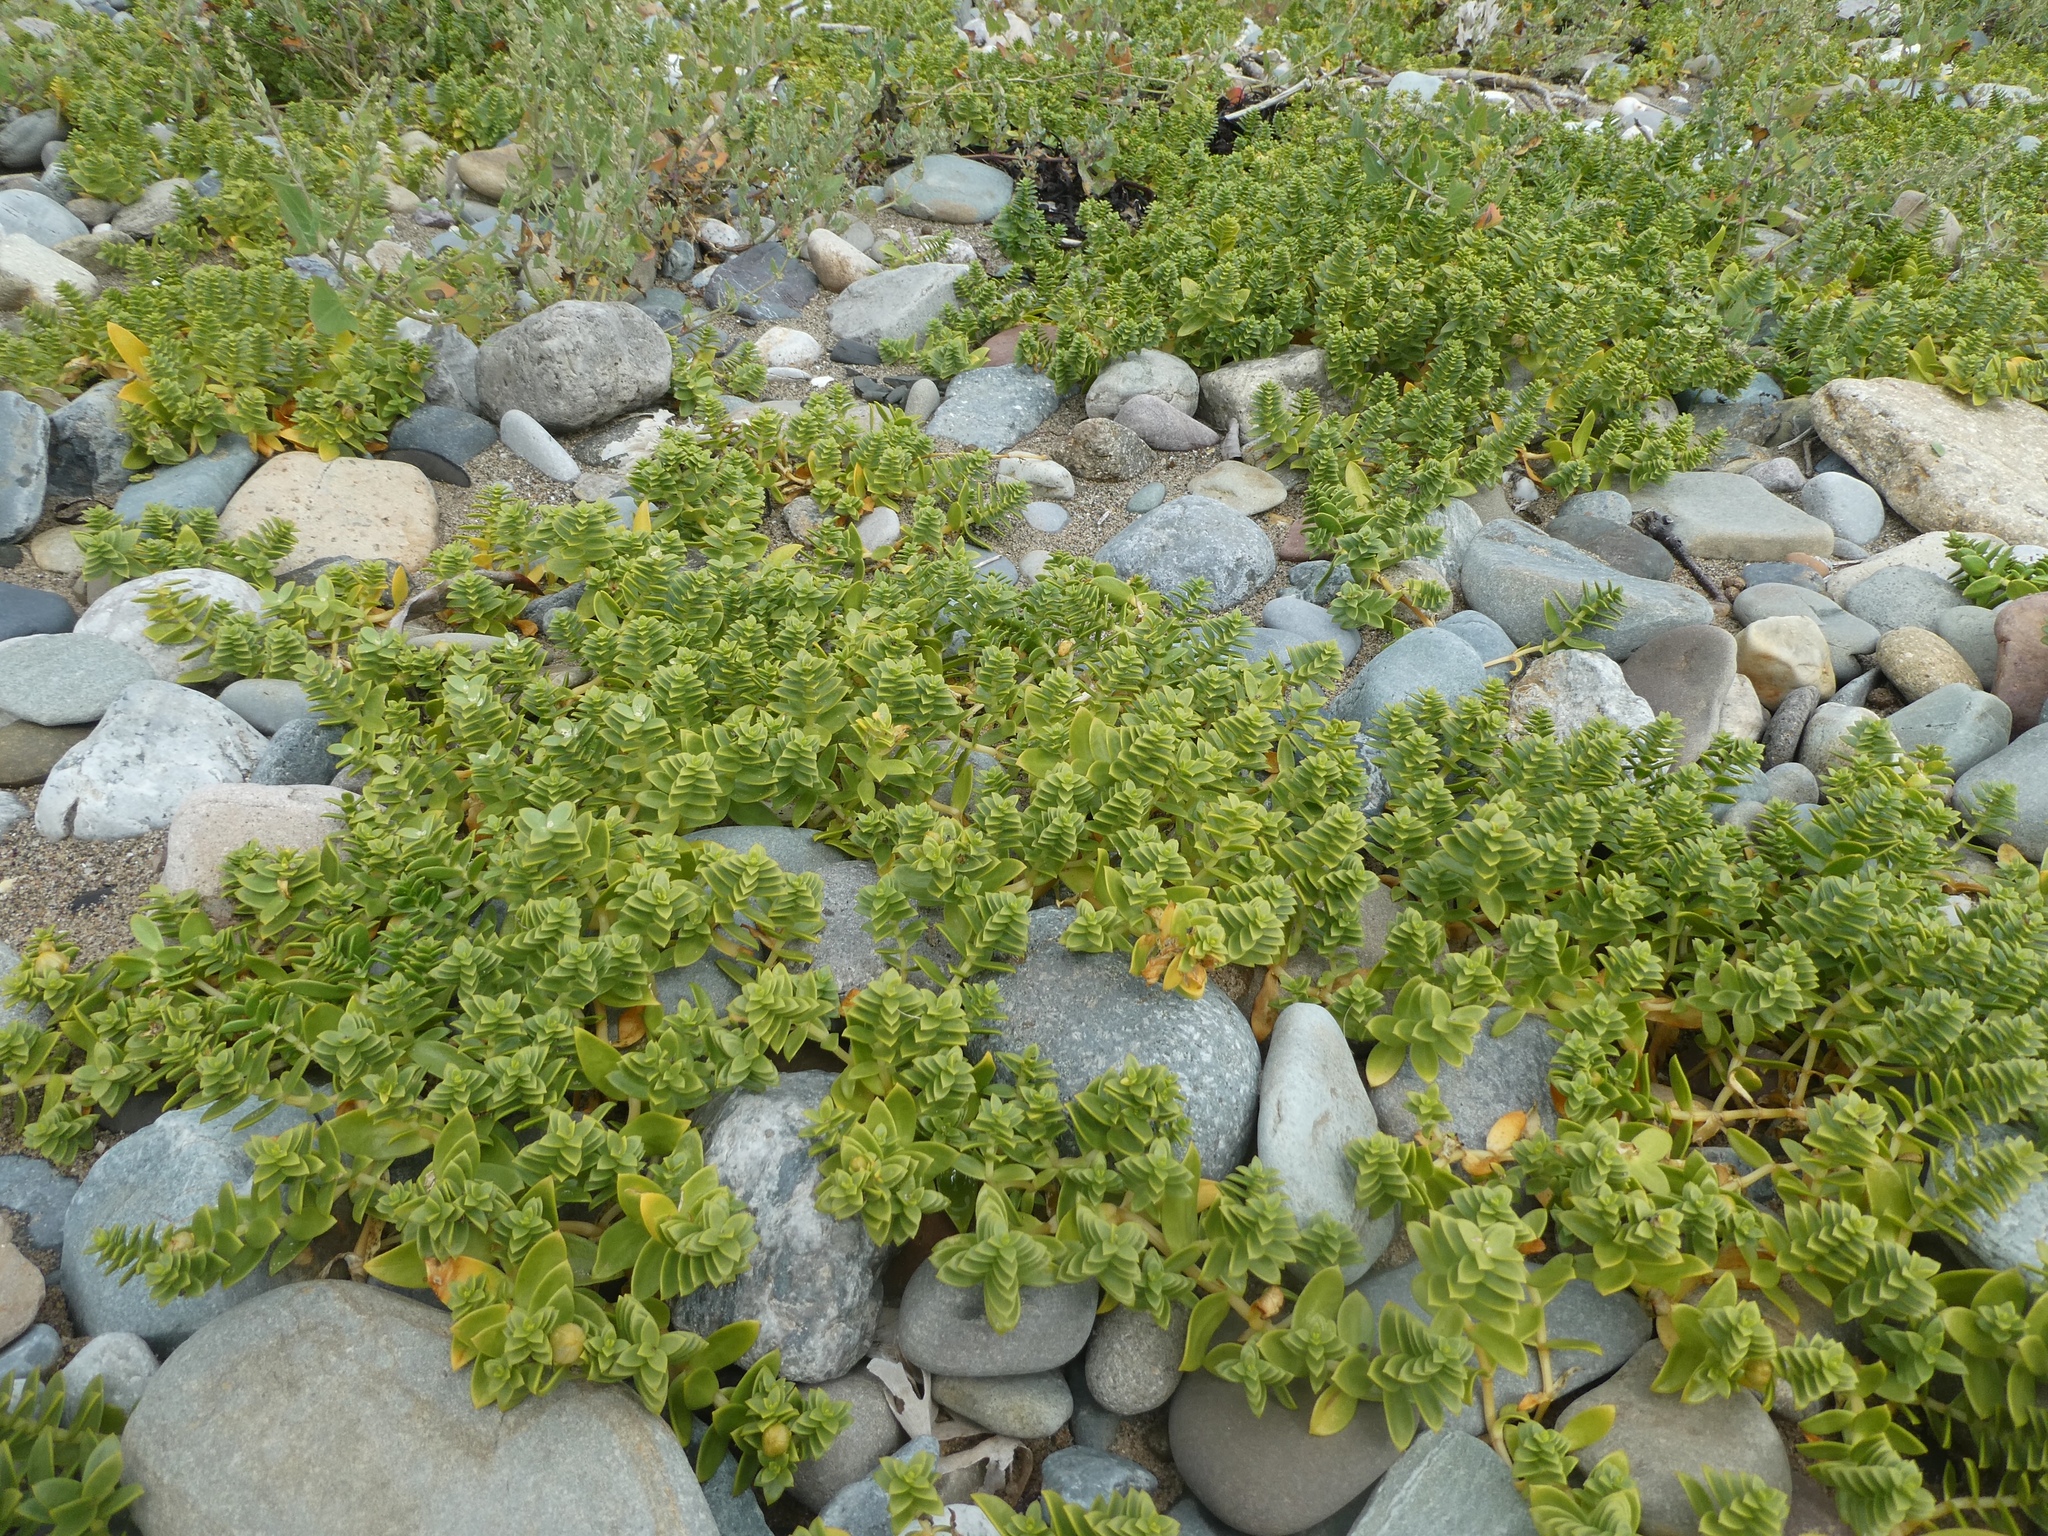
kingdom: Plantae
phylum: Tracheophyta
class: Magnoliopsida
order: Caryophyllales
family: Caryophyllaceae
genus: Honckenya
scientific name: Honckenya peploides
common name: Sea sandwort
